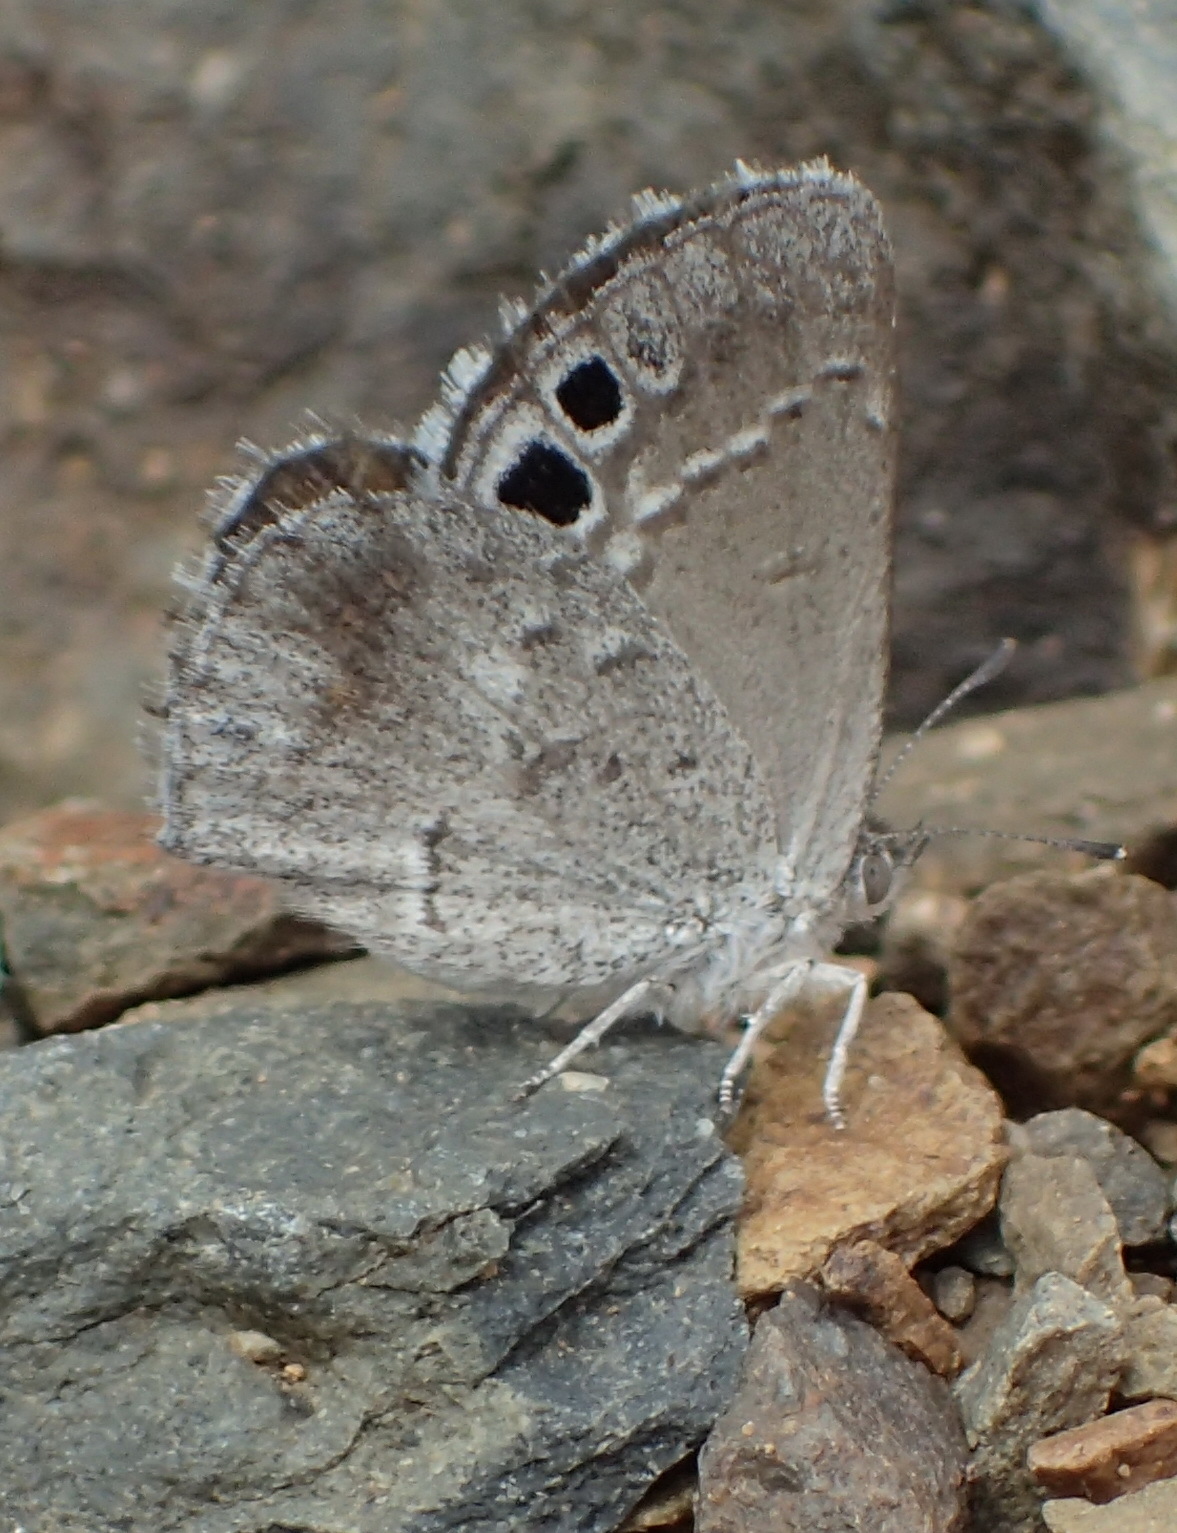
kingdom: Animalia
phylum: Arthropoda
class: Insecta
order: Lepidoptera
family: Lycaenidae
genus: Leptomyrina
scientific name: Leptomyrina lara
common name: Cape black-eye
